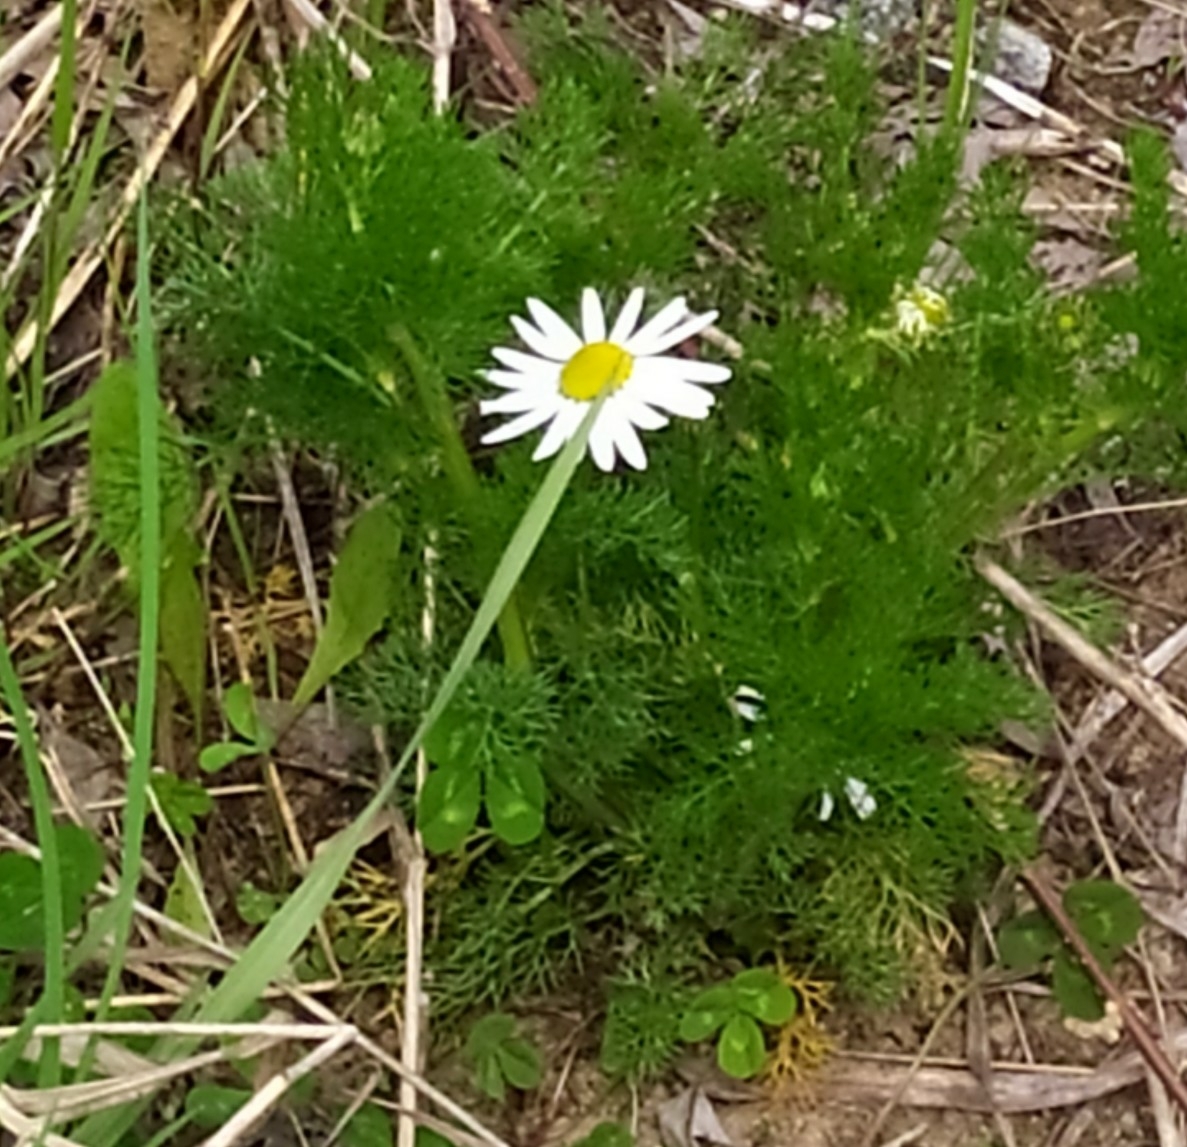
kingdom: Plantae
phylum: Tracheophyta
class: Magnoliopsida
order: Asterales
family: Asteraceae
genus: Tripleurospermum
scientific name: Tripleurospermum inodorum
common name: Scentless mayweed
